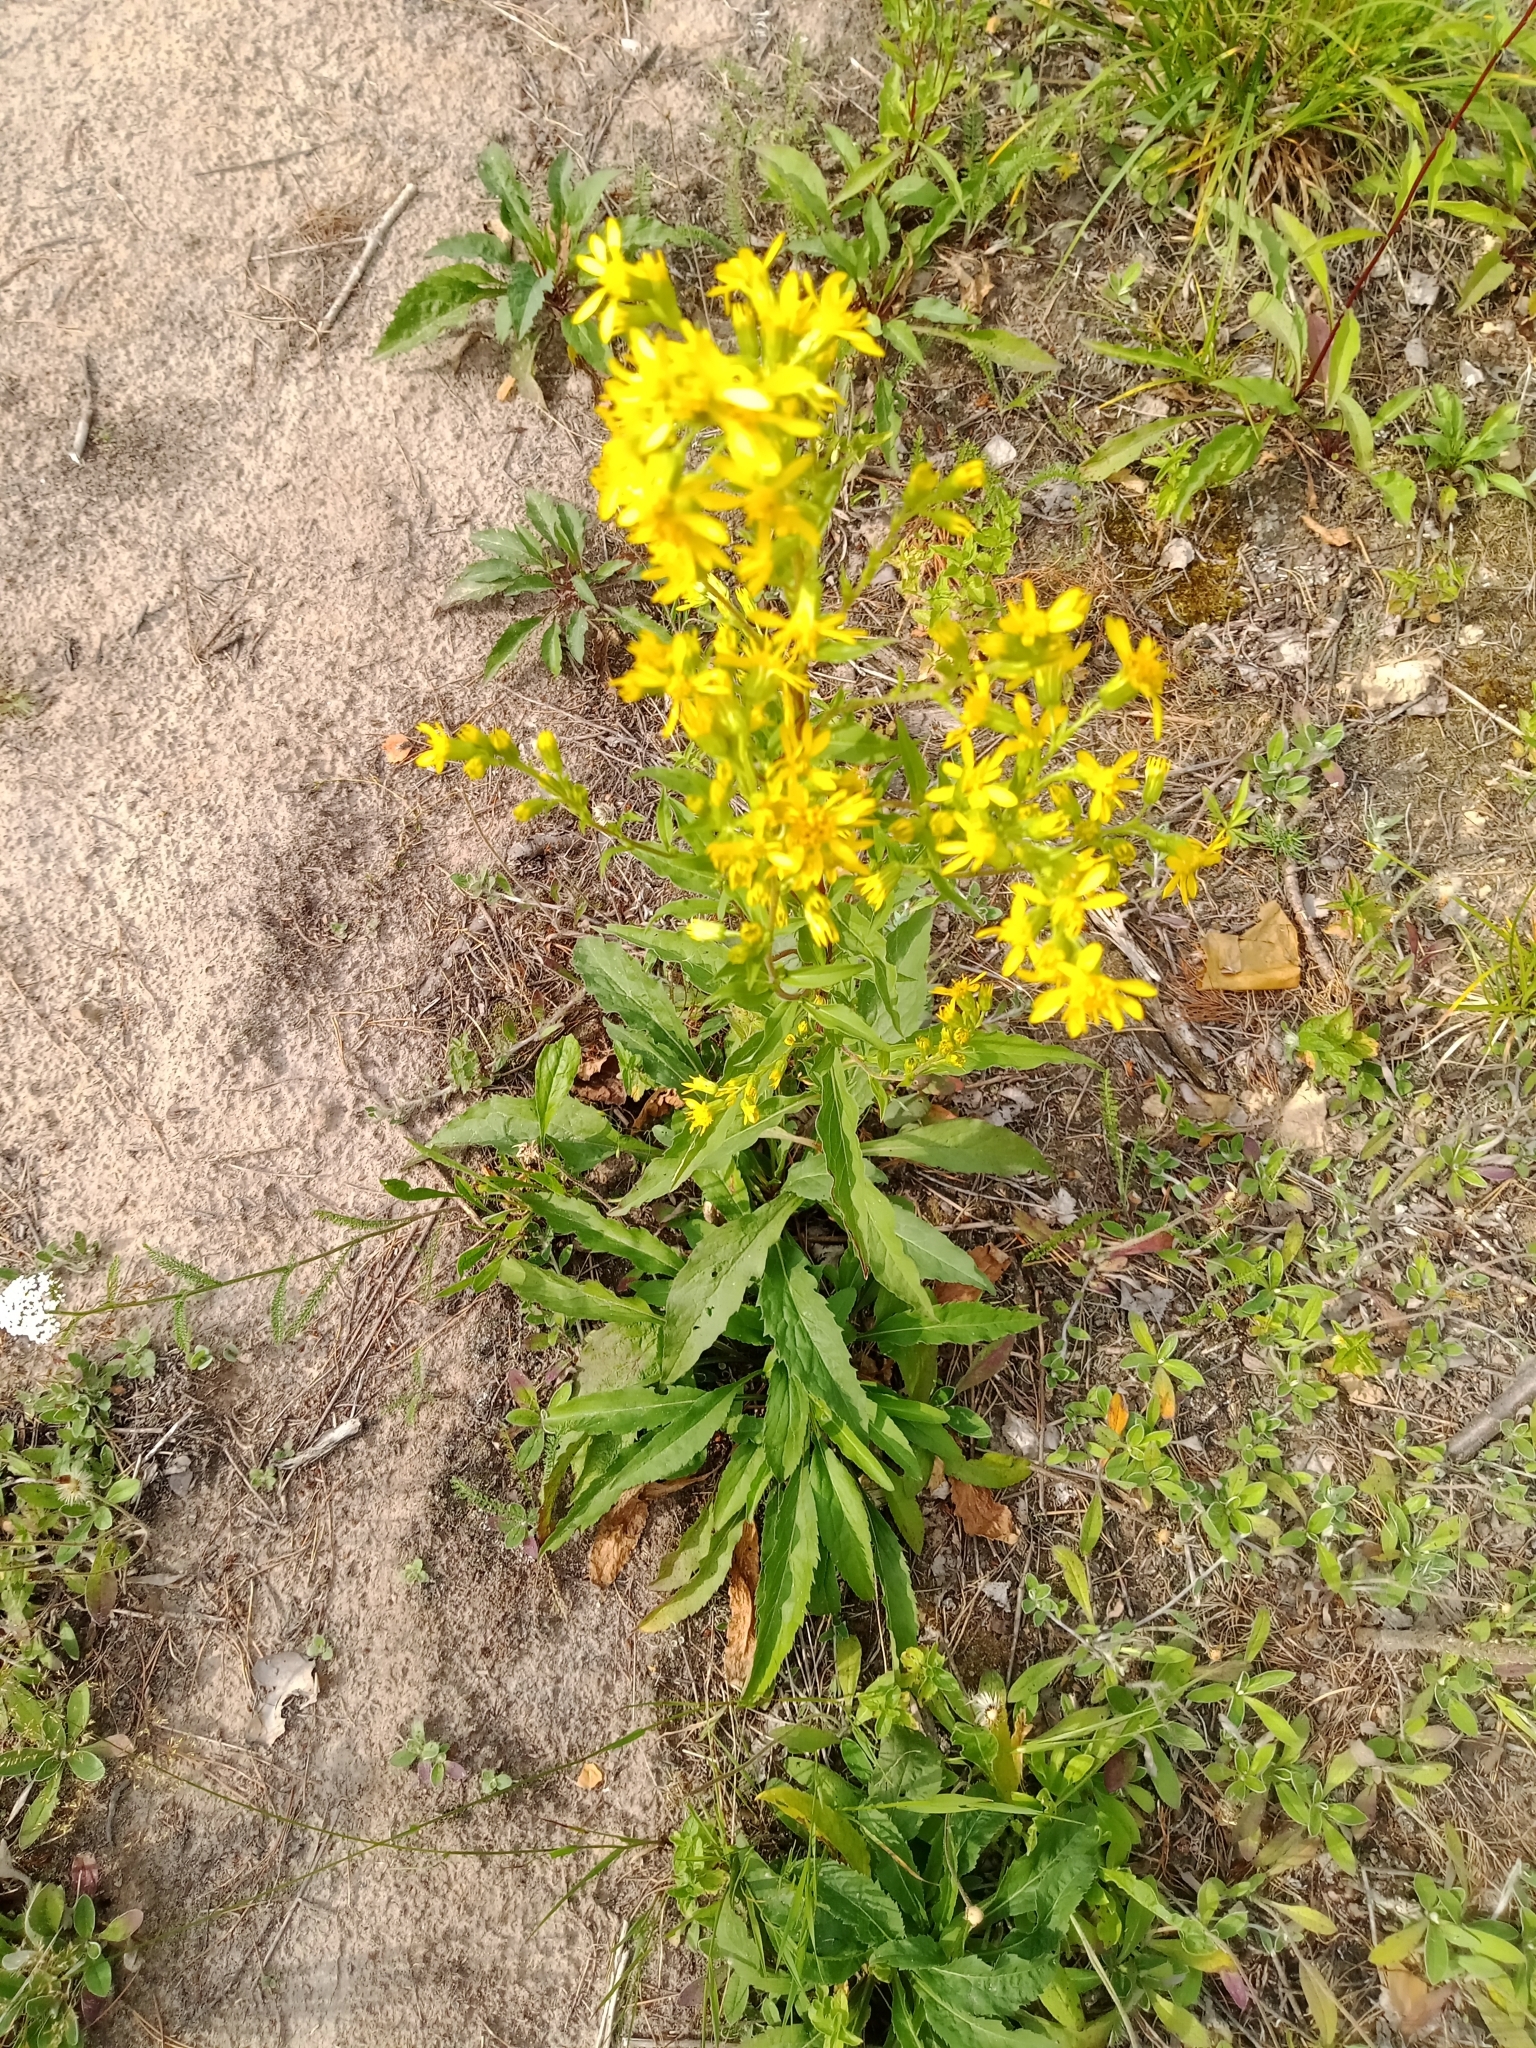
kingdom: Plantae
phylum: Tracheophyta
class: Magnoliopsida
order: Asterales
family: Asteraceae
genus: Solidago
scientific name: Solidago virgaurea
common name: Goldenrod
